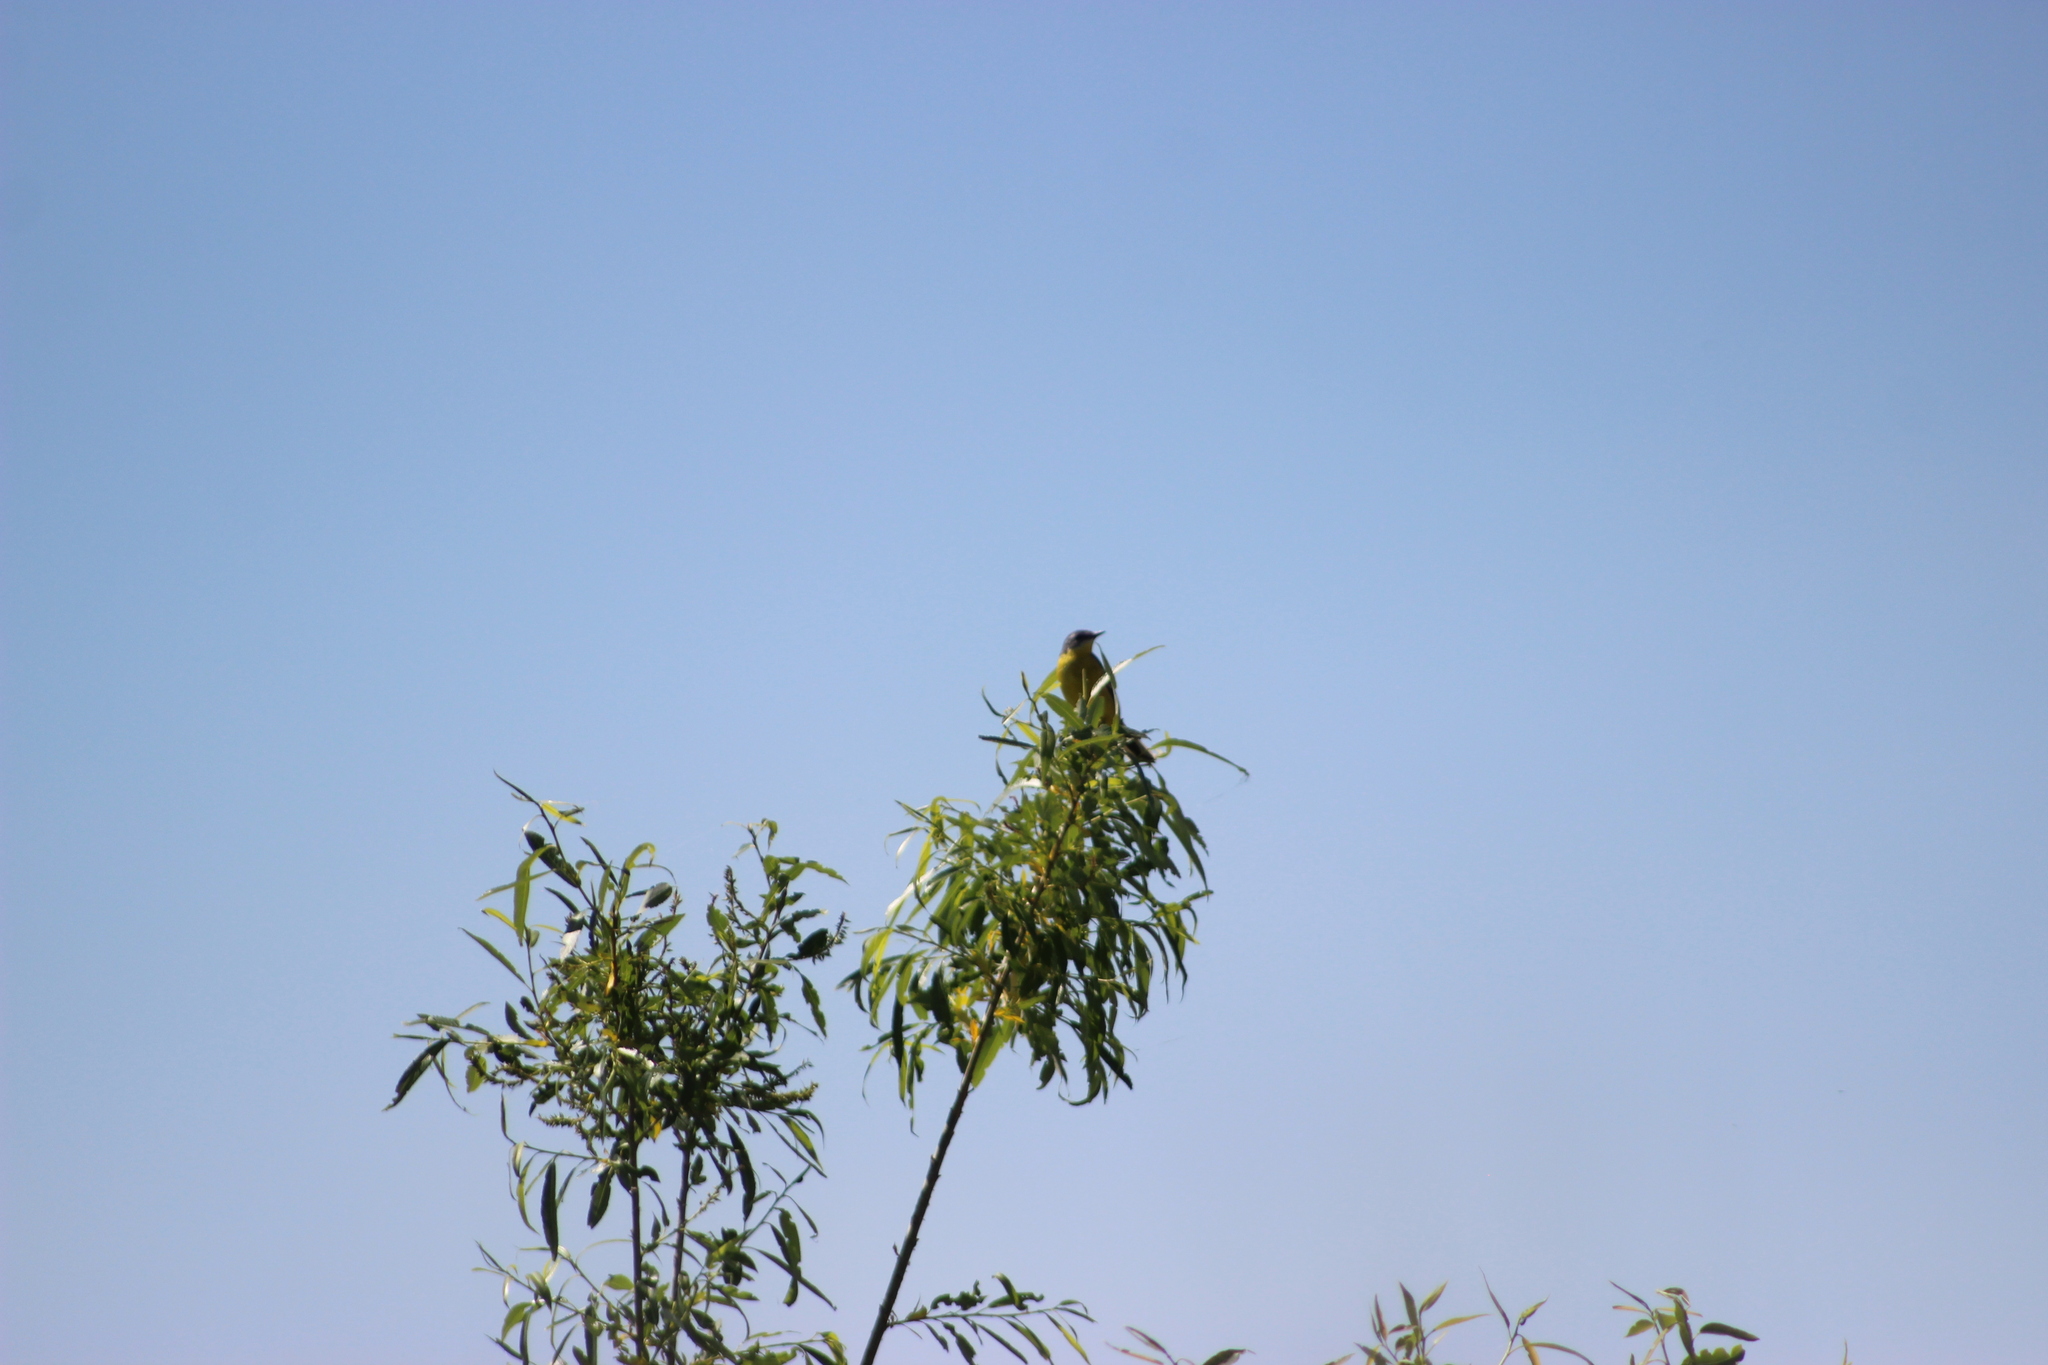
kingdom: Animalia
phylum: Chordata
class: Aves
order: Passeriformes
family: Motacillidae
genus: Motacilla
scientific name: Motacilla flava
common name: Western yellow wagtail
